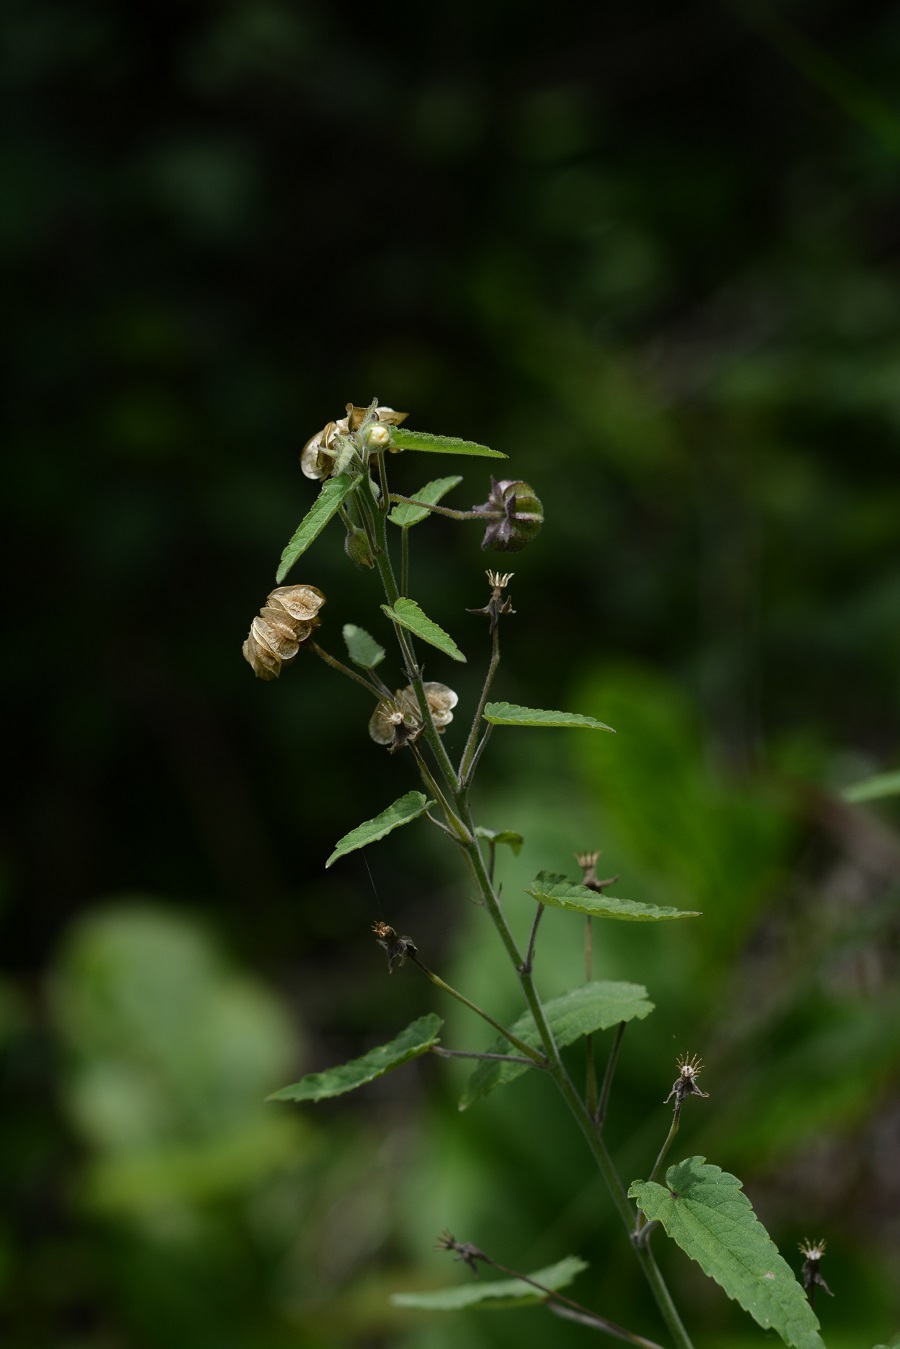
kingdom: Plantae
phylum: Tracheophyta
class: Magnoliopsida
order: Malvales
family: Malvaceae
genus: Gaya
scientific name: Gaya minutiflora
